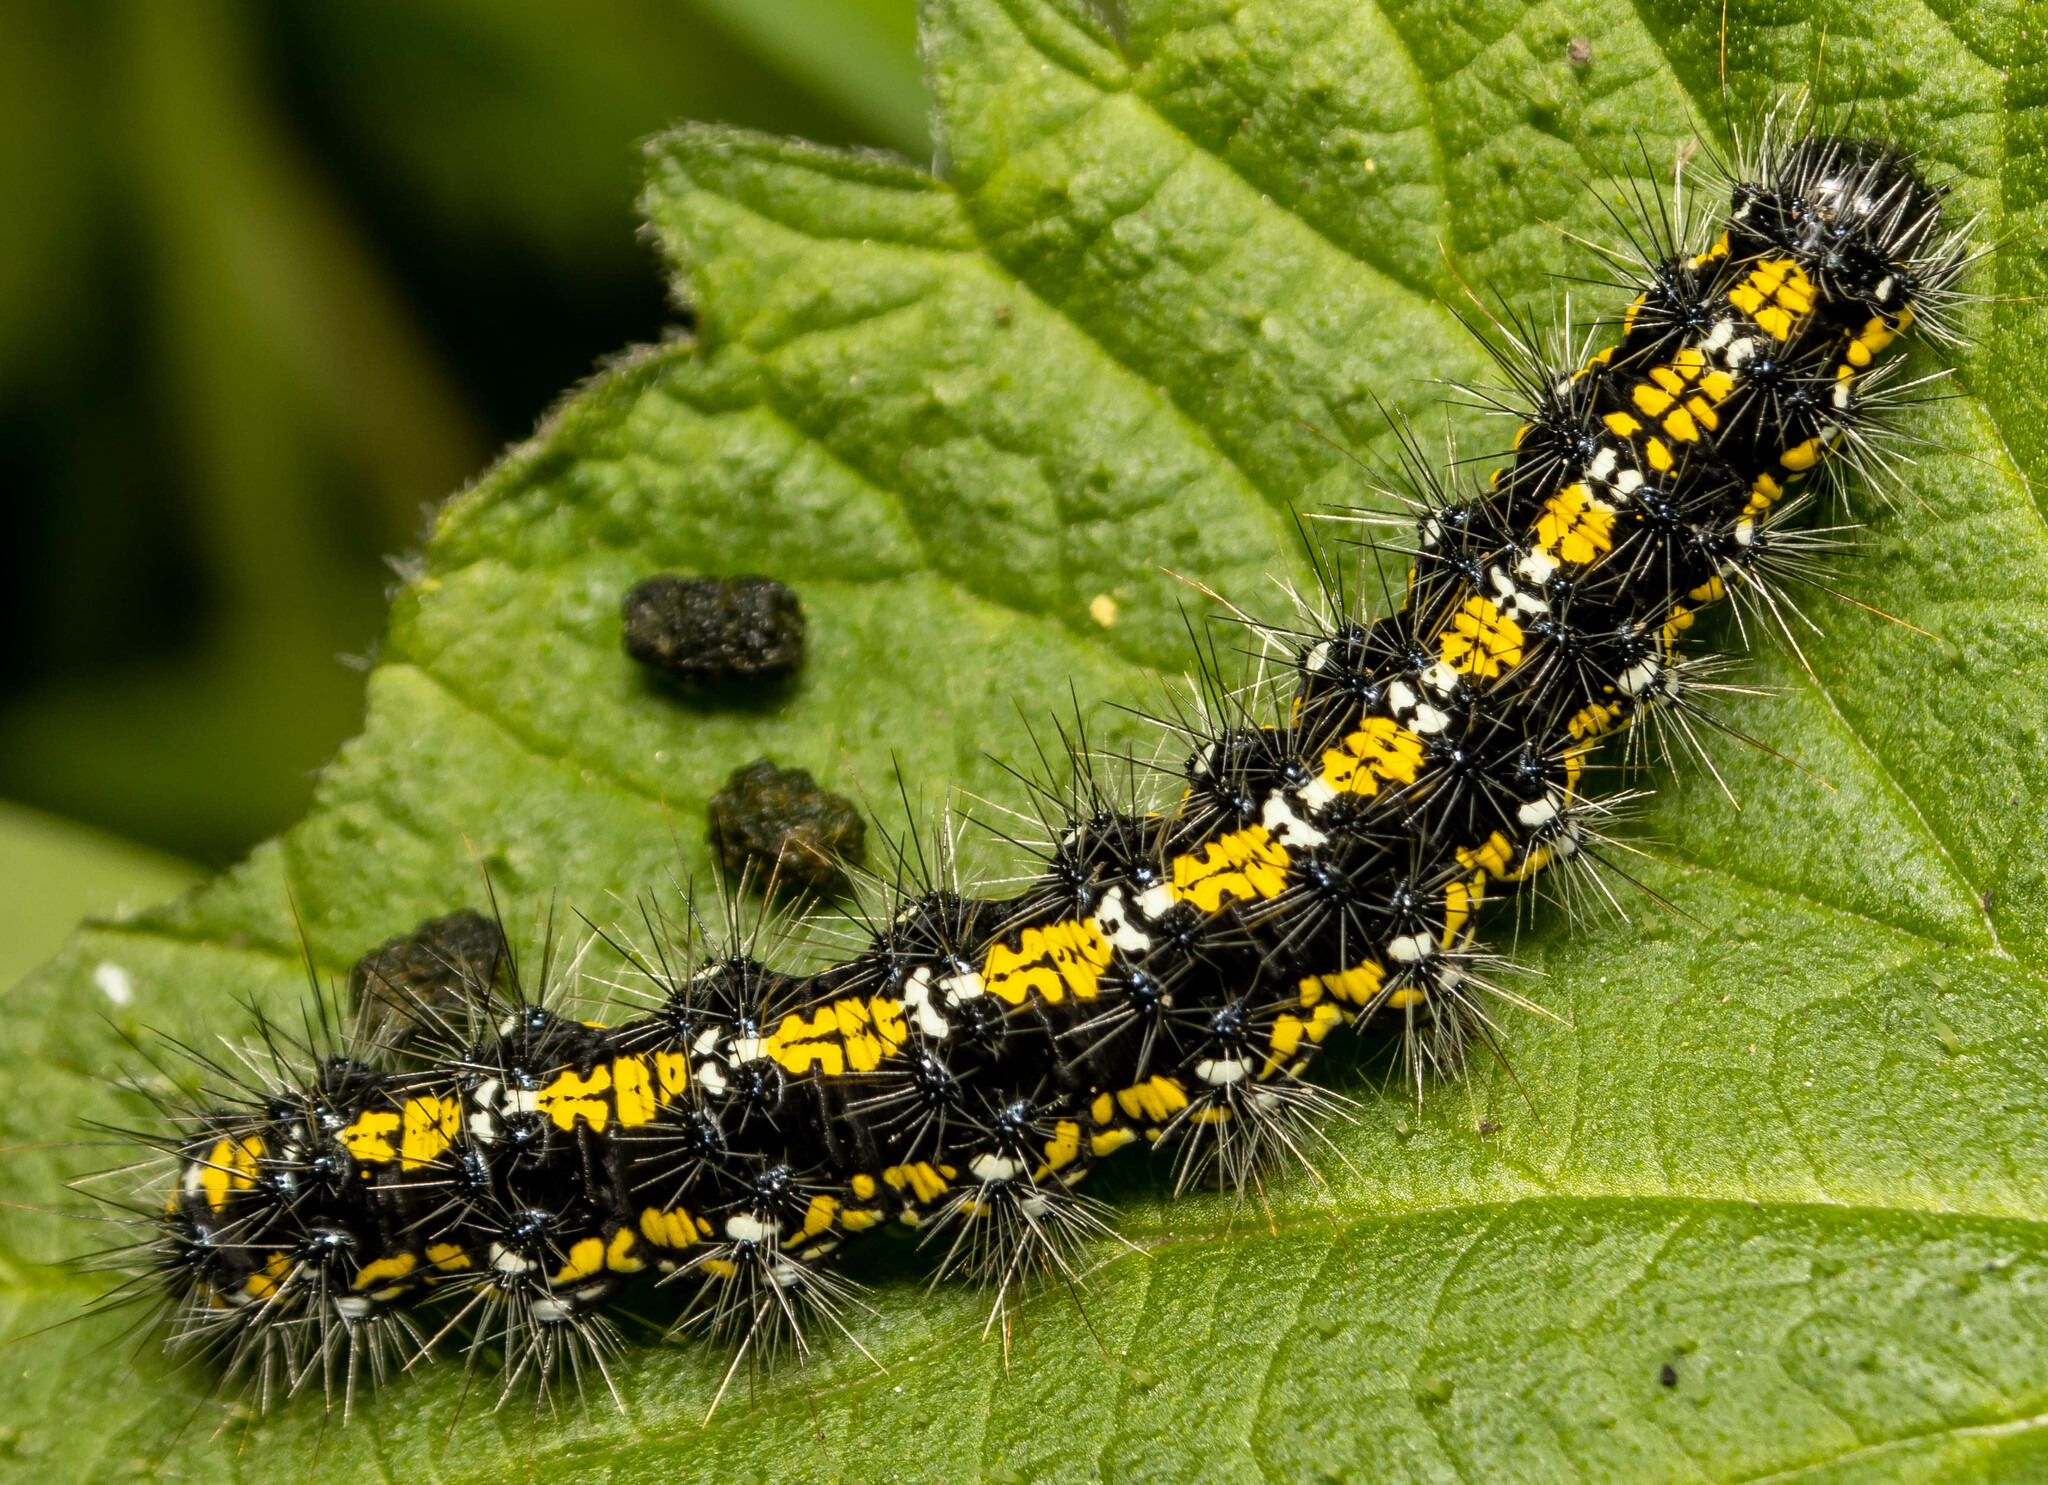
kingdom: Animalia
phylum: Arthropoda
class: Insecta
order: Lepidoptera
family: Erebidae
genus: Callimorpha
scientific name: Callimorpha dominula
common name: Scarlet tiger
